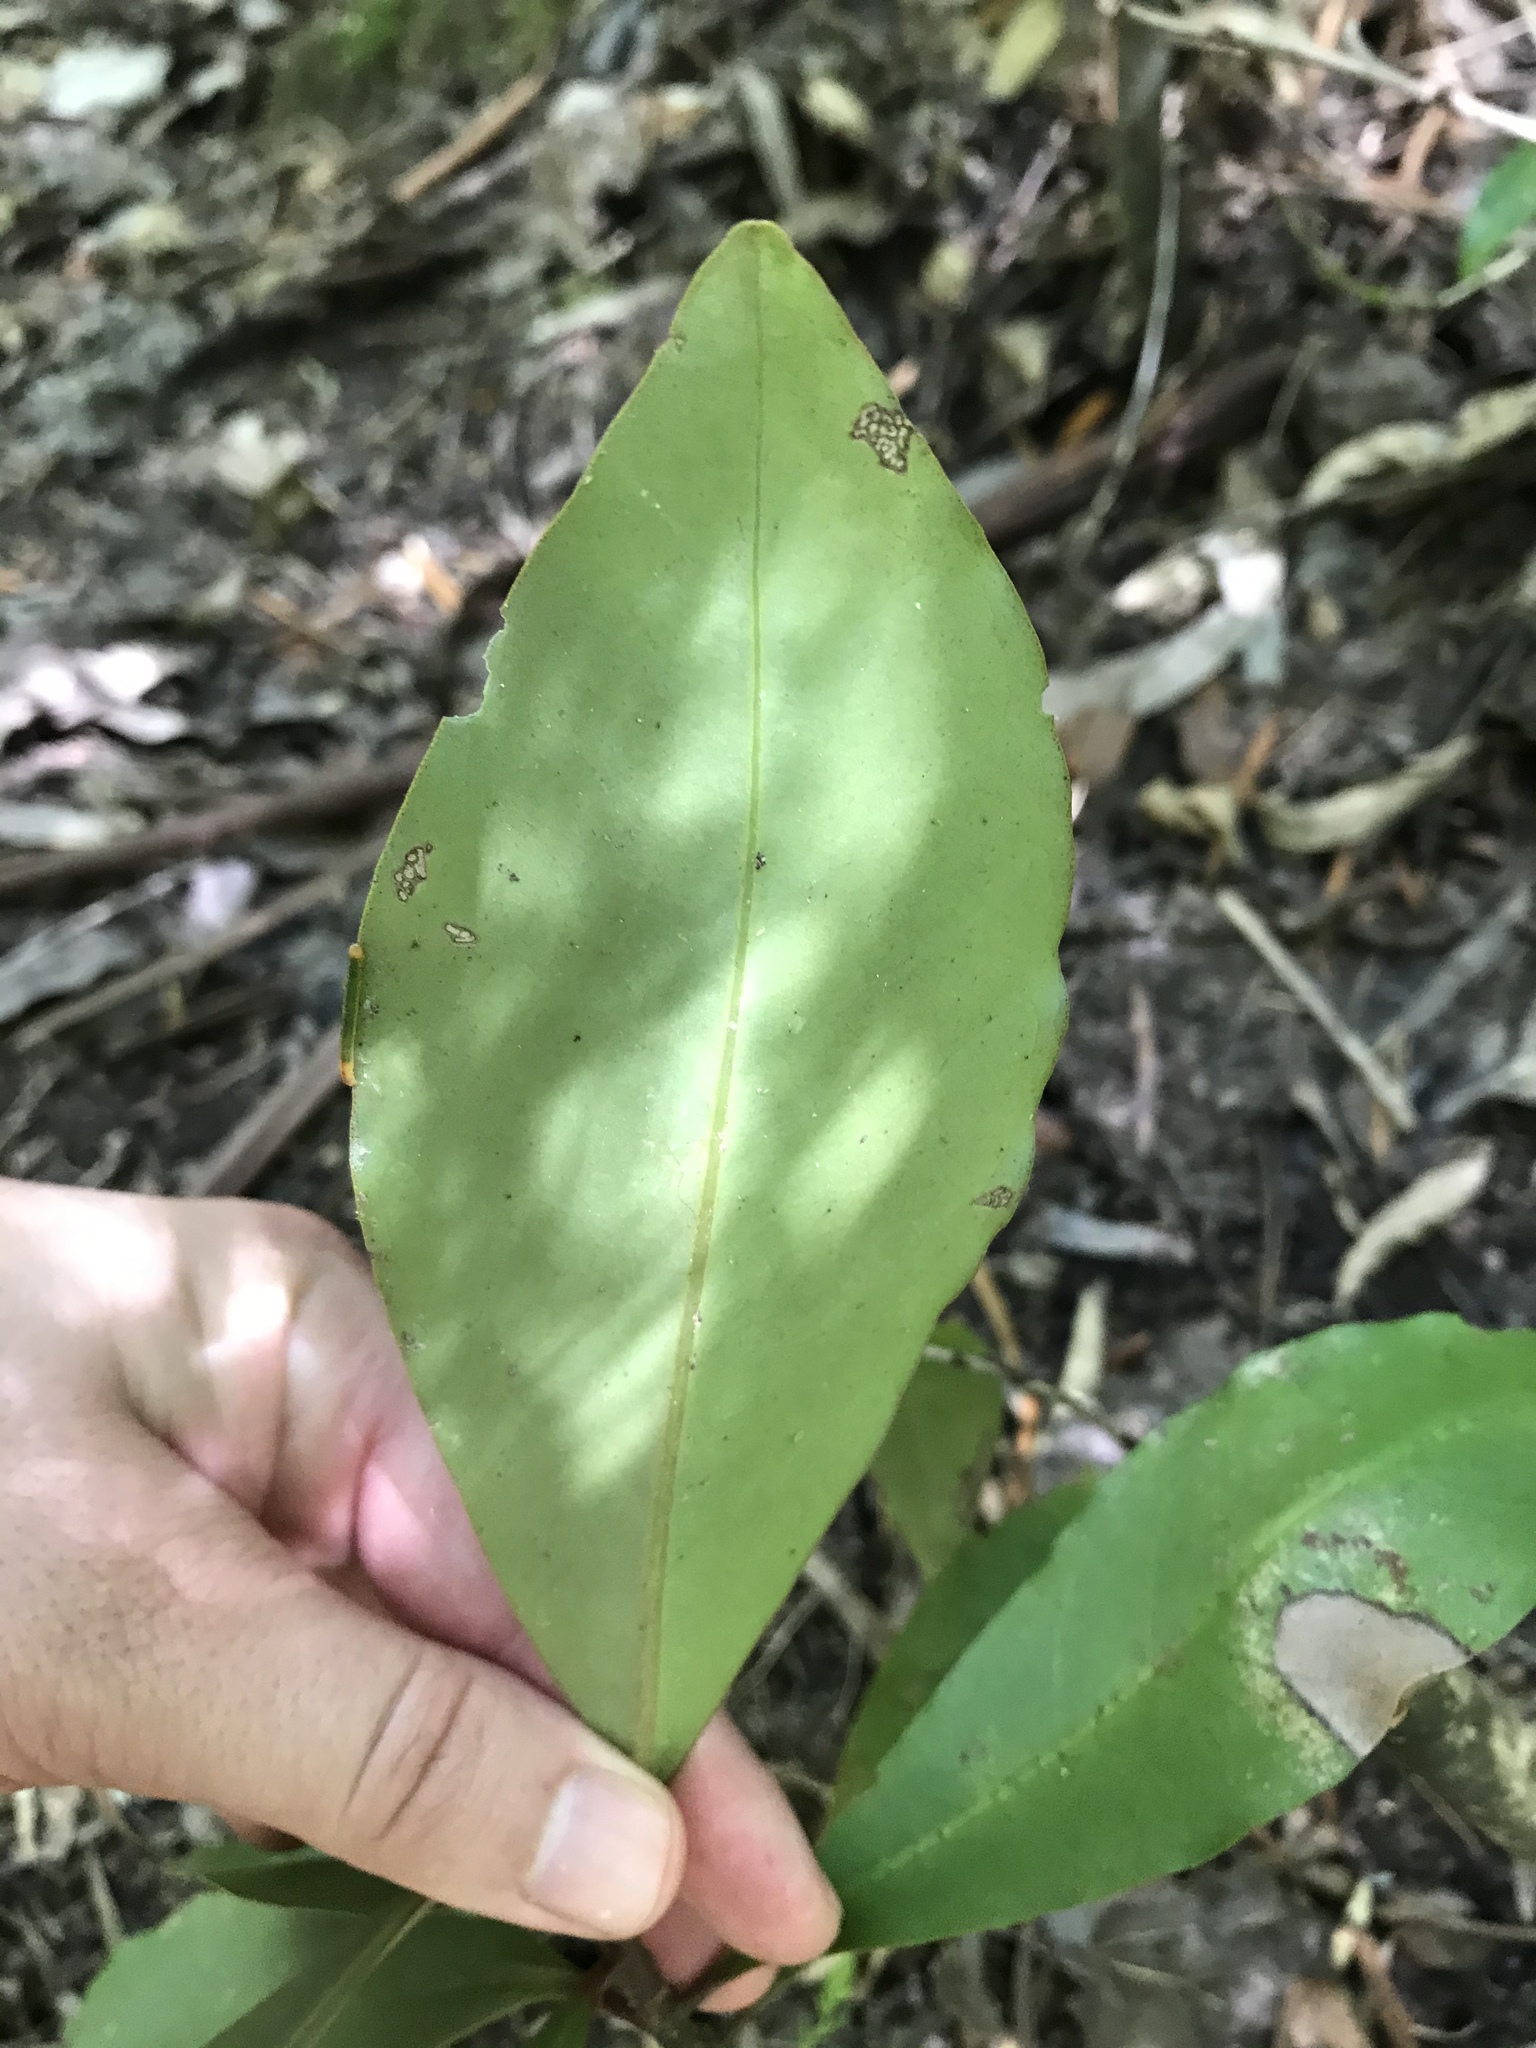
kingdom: Plantae
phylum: Tracheophyta
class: Magnoliopsida
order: Ericales
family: Primulaceae
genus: Myrsine
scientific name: Myrsine melanophloeos
